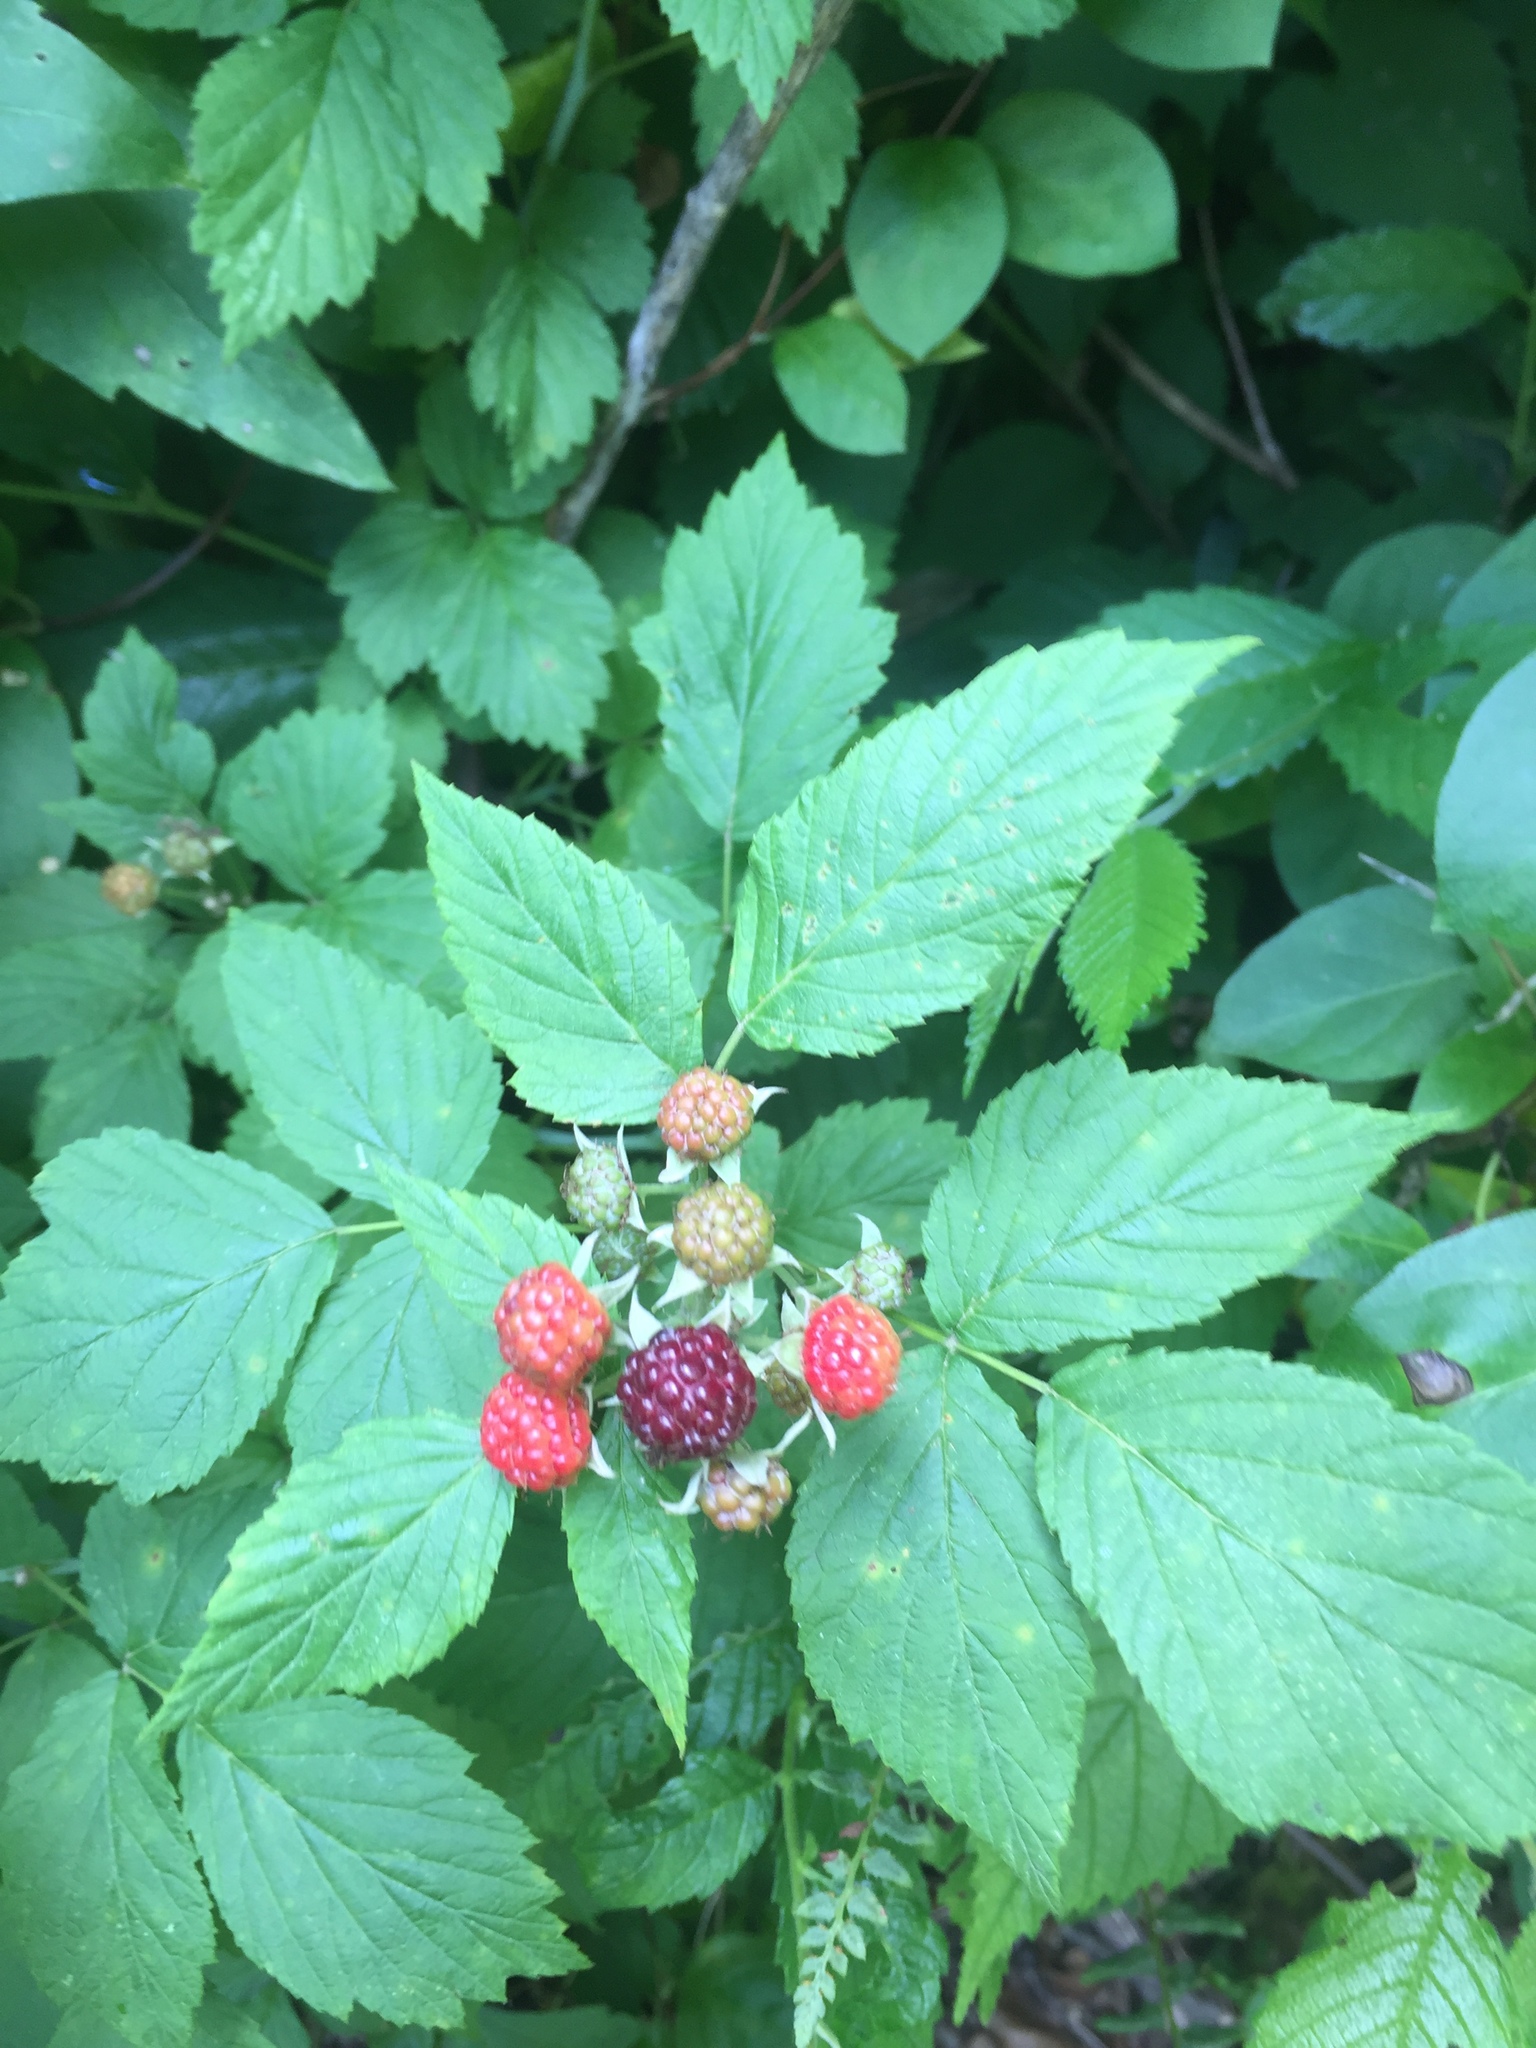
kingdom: Plantae
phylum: Tracheophyta
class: Magnoliopsida
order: Rosales
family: Rosaceae
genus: Rubus
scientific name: Rubus occidentalis
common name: Black raspberry
